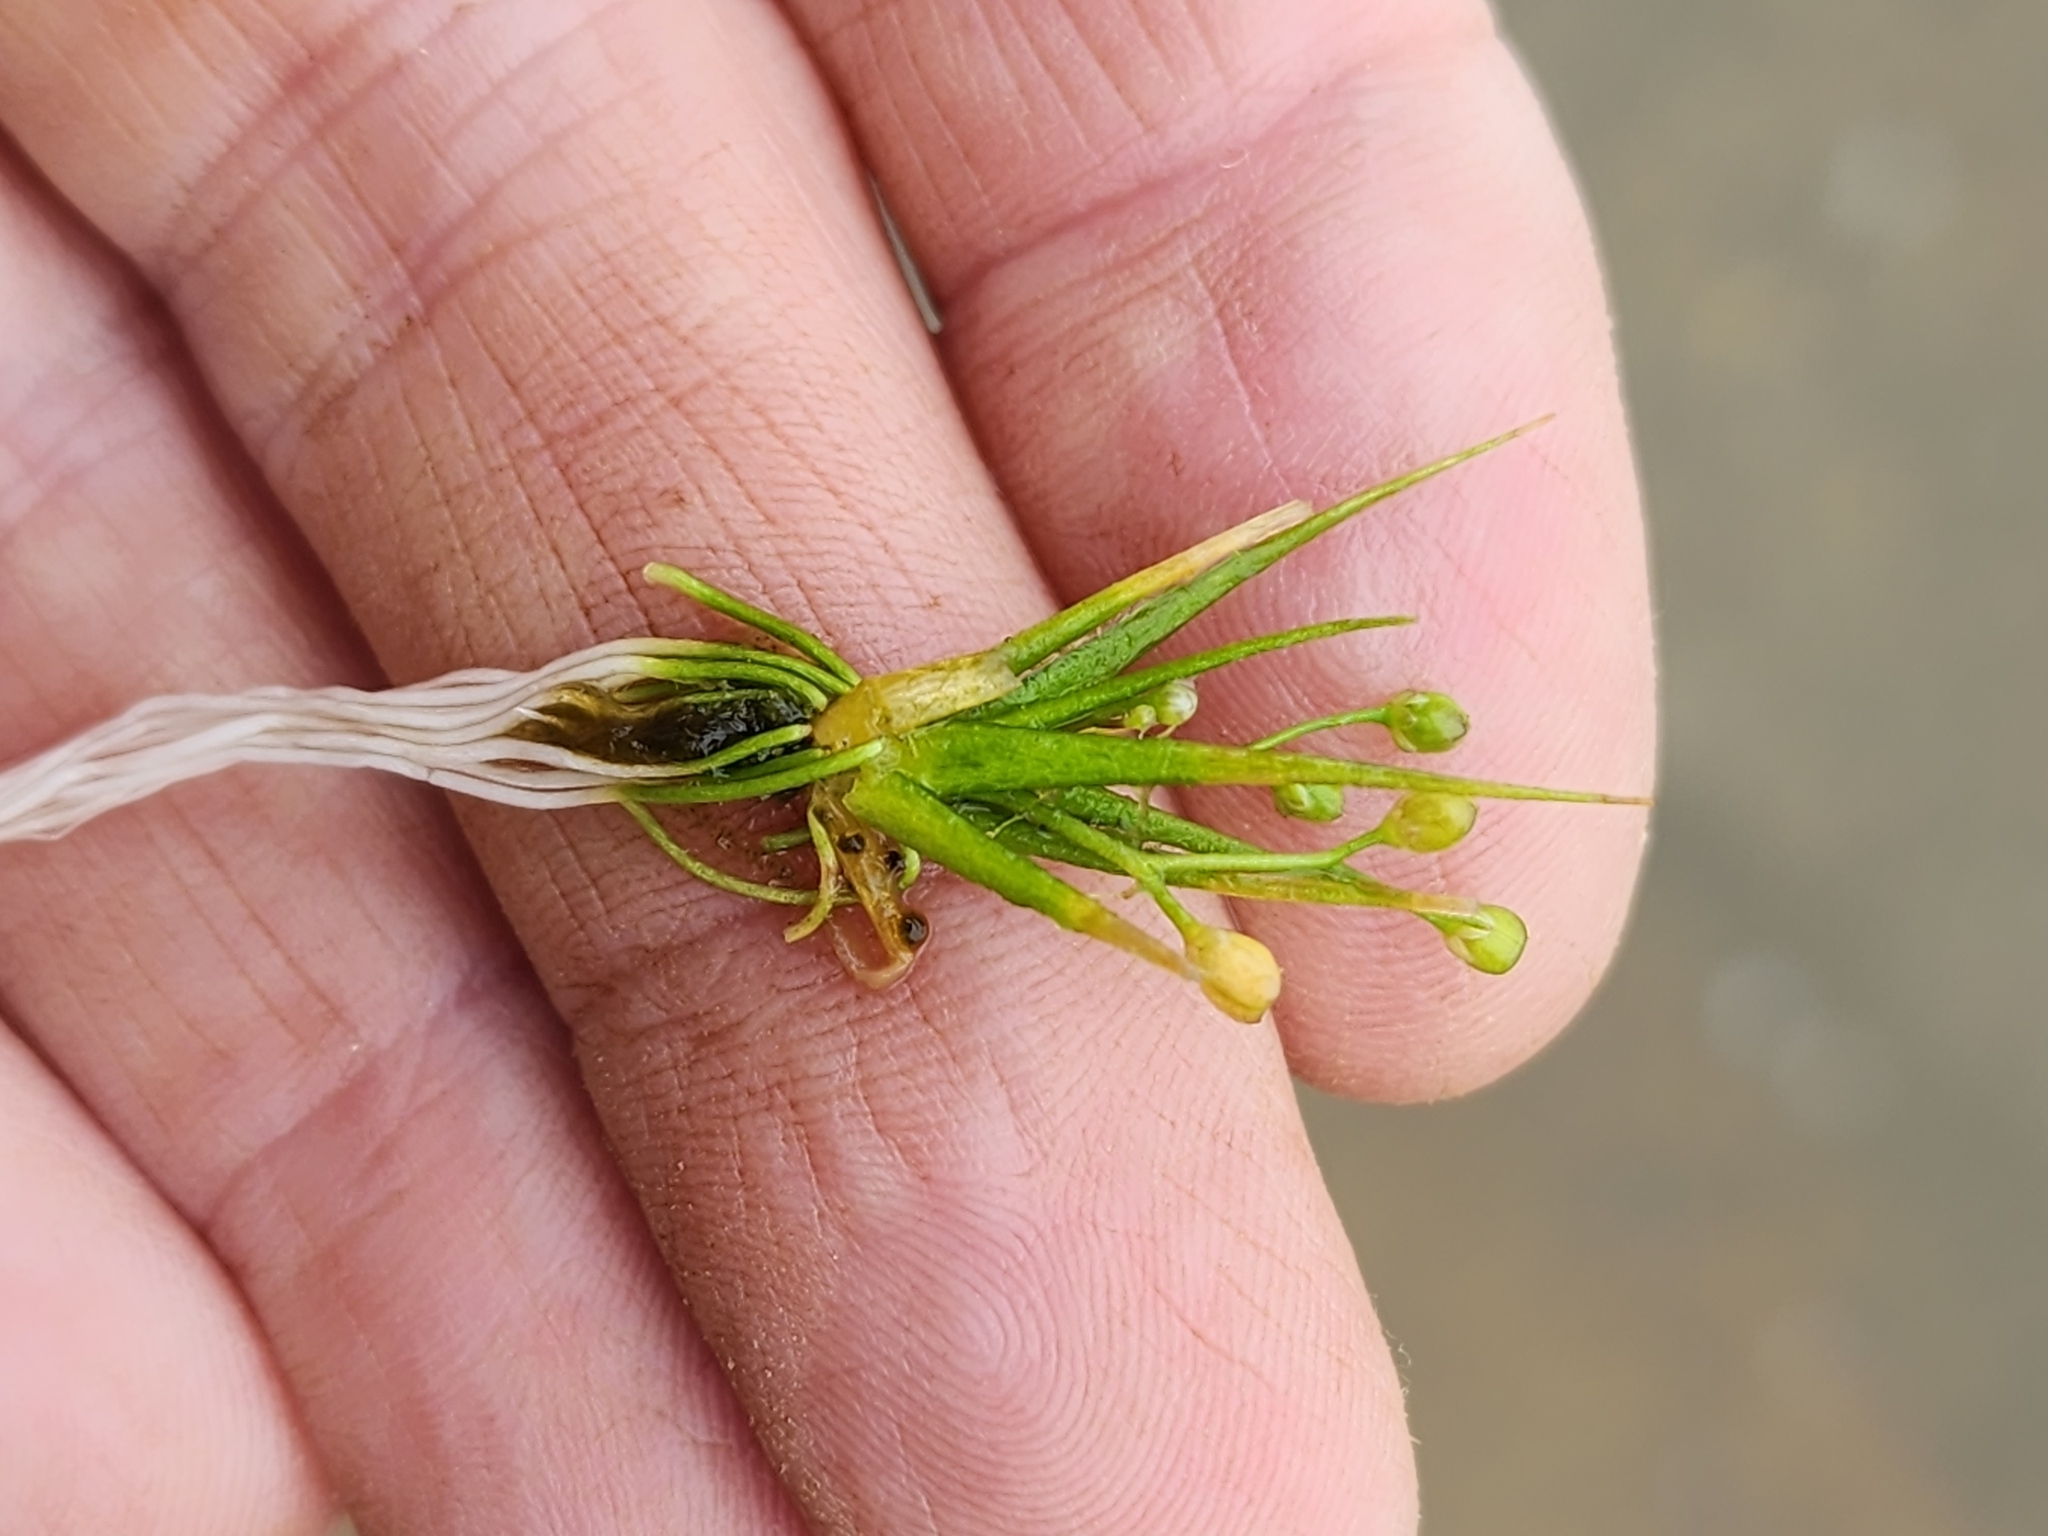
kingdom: Plantae
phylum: Tracheophyta
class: Magnoliopsida
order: Brassicales
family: Brassicaceae
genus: Subularia
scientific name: Subularia aquatica
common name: Awlwort
